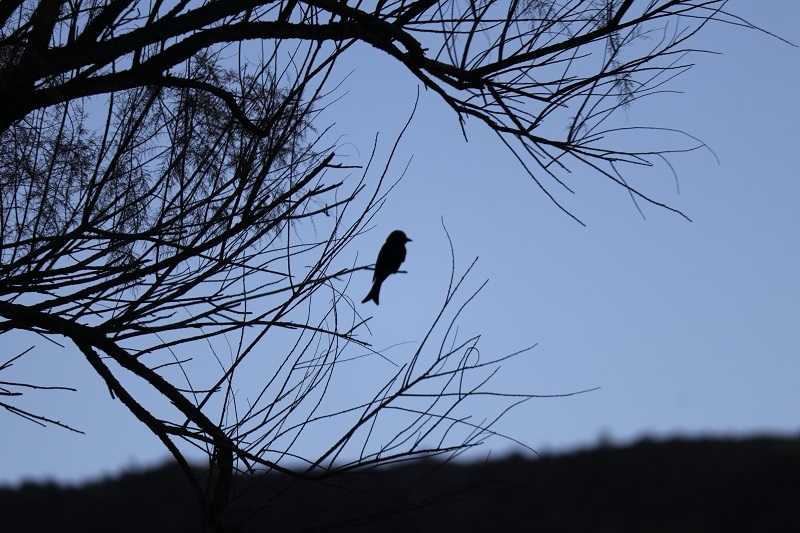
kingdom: Animalia
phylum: Chordata
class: Aves
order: Passeriformes
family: Dicruridae
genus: Dicrurus
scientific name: Dicrurus adsimilis
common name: Fork-tailed drongo
